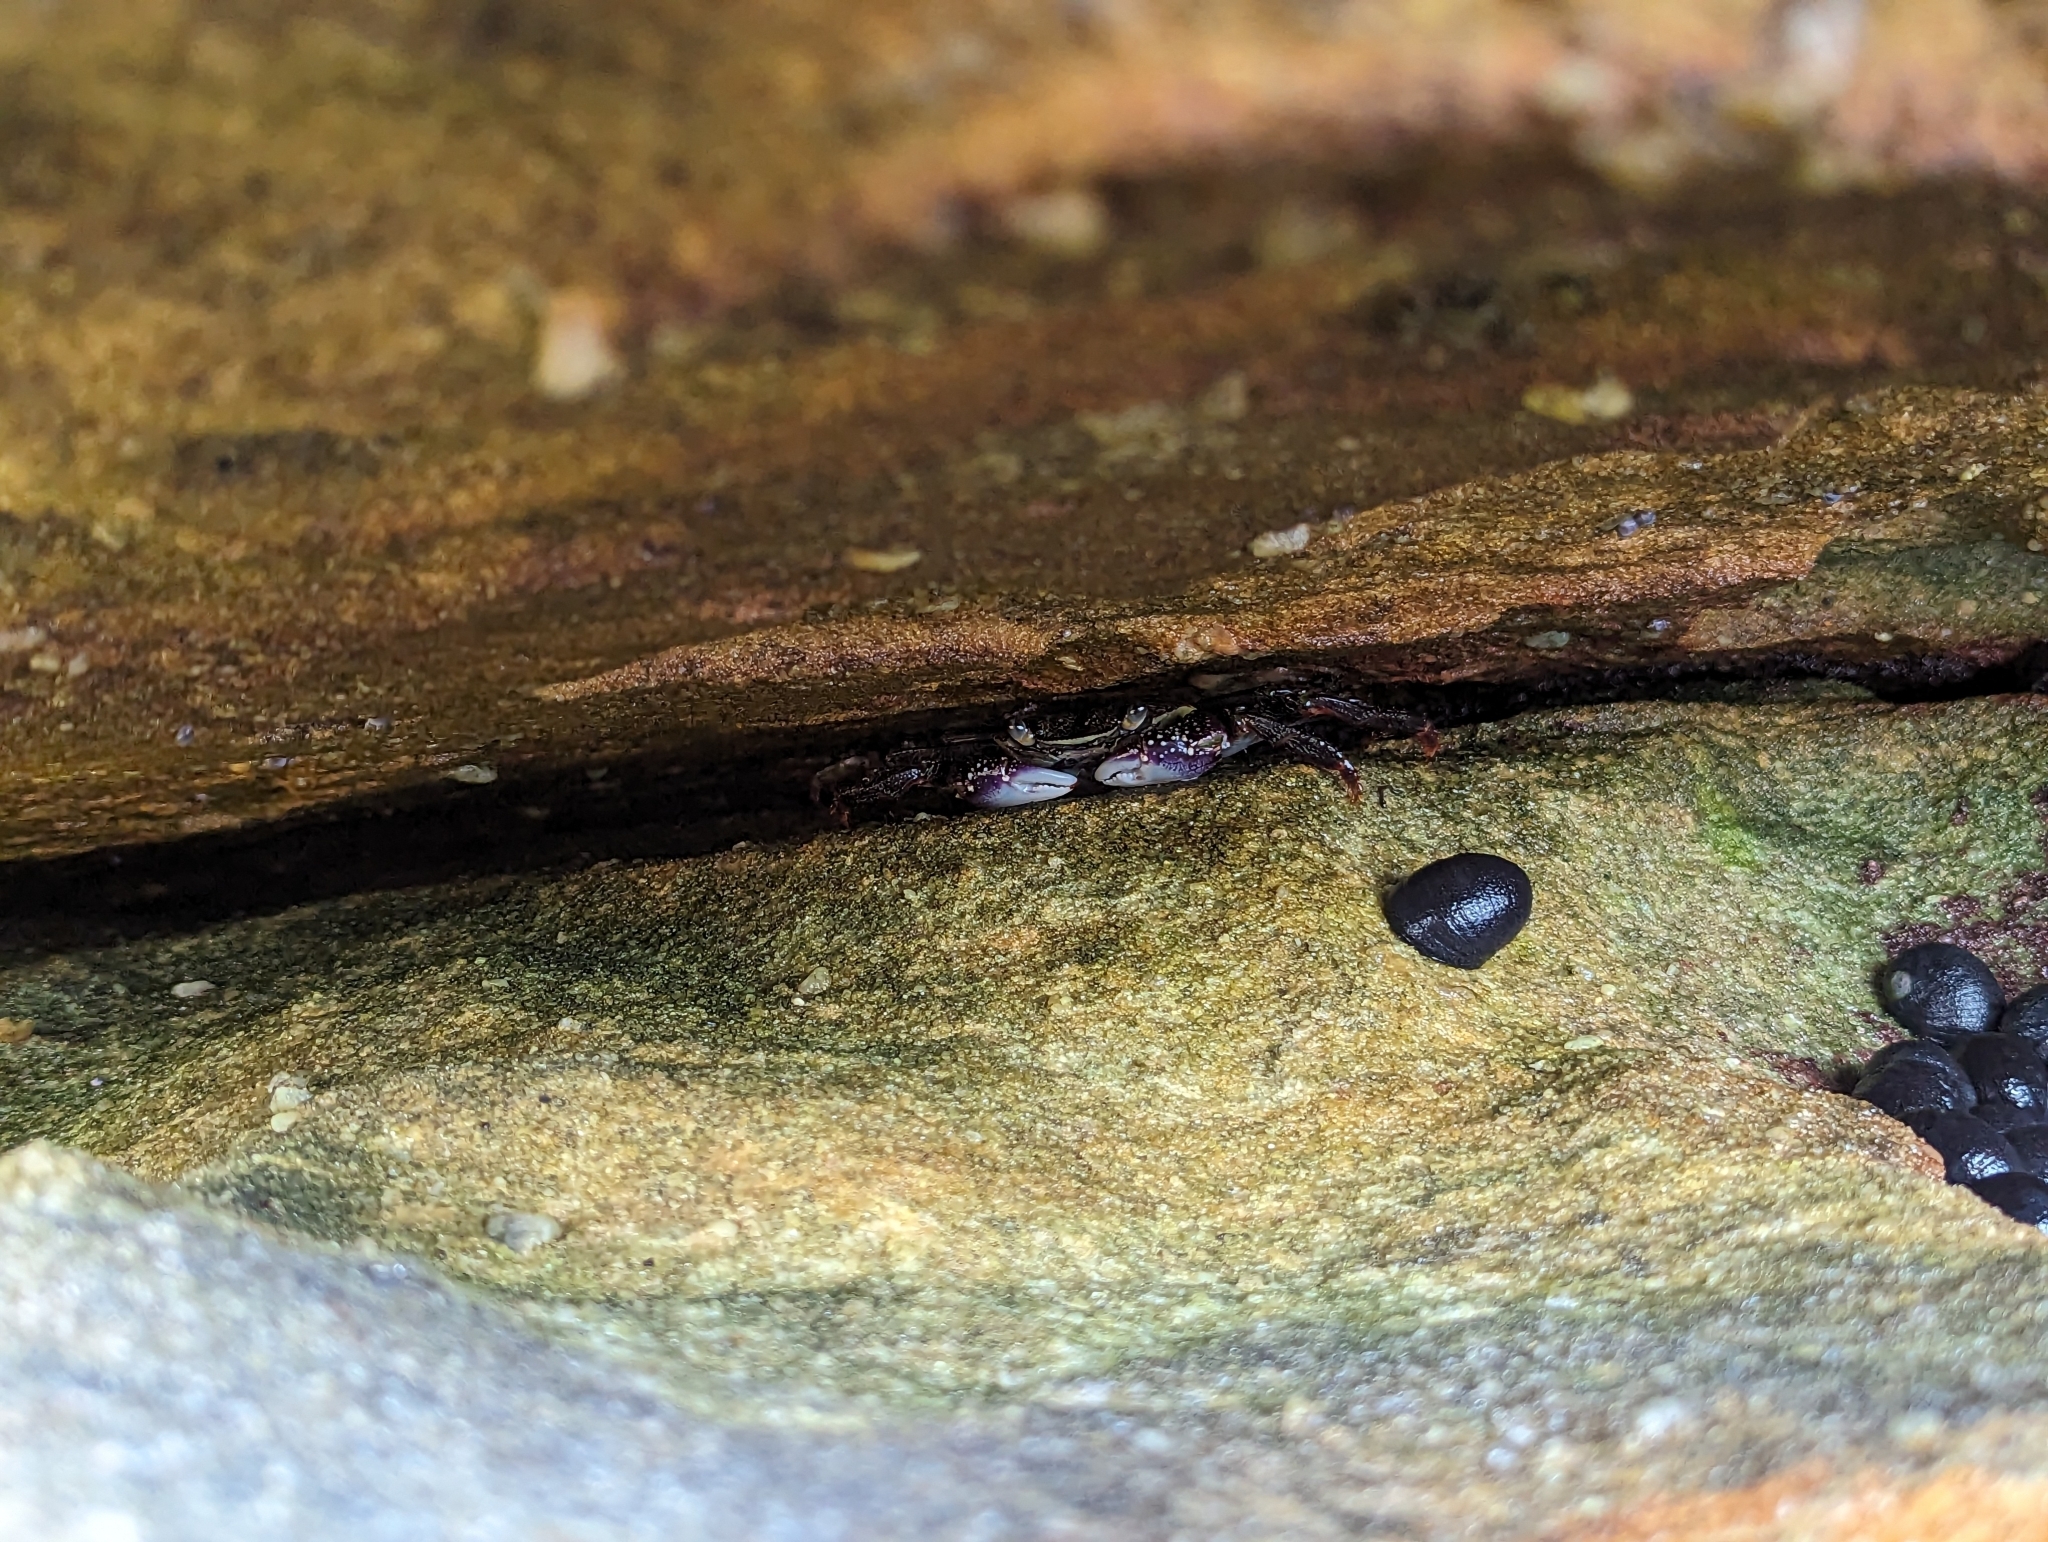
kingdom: Animalia
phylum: Arthropoda
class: Malacostraca
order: Decapoda
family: Grapsidae
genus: Leptograpsus
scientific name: Leptograpsus variegatus
